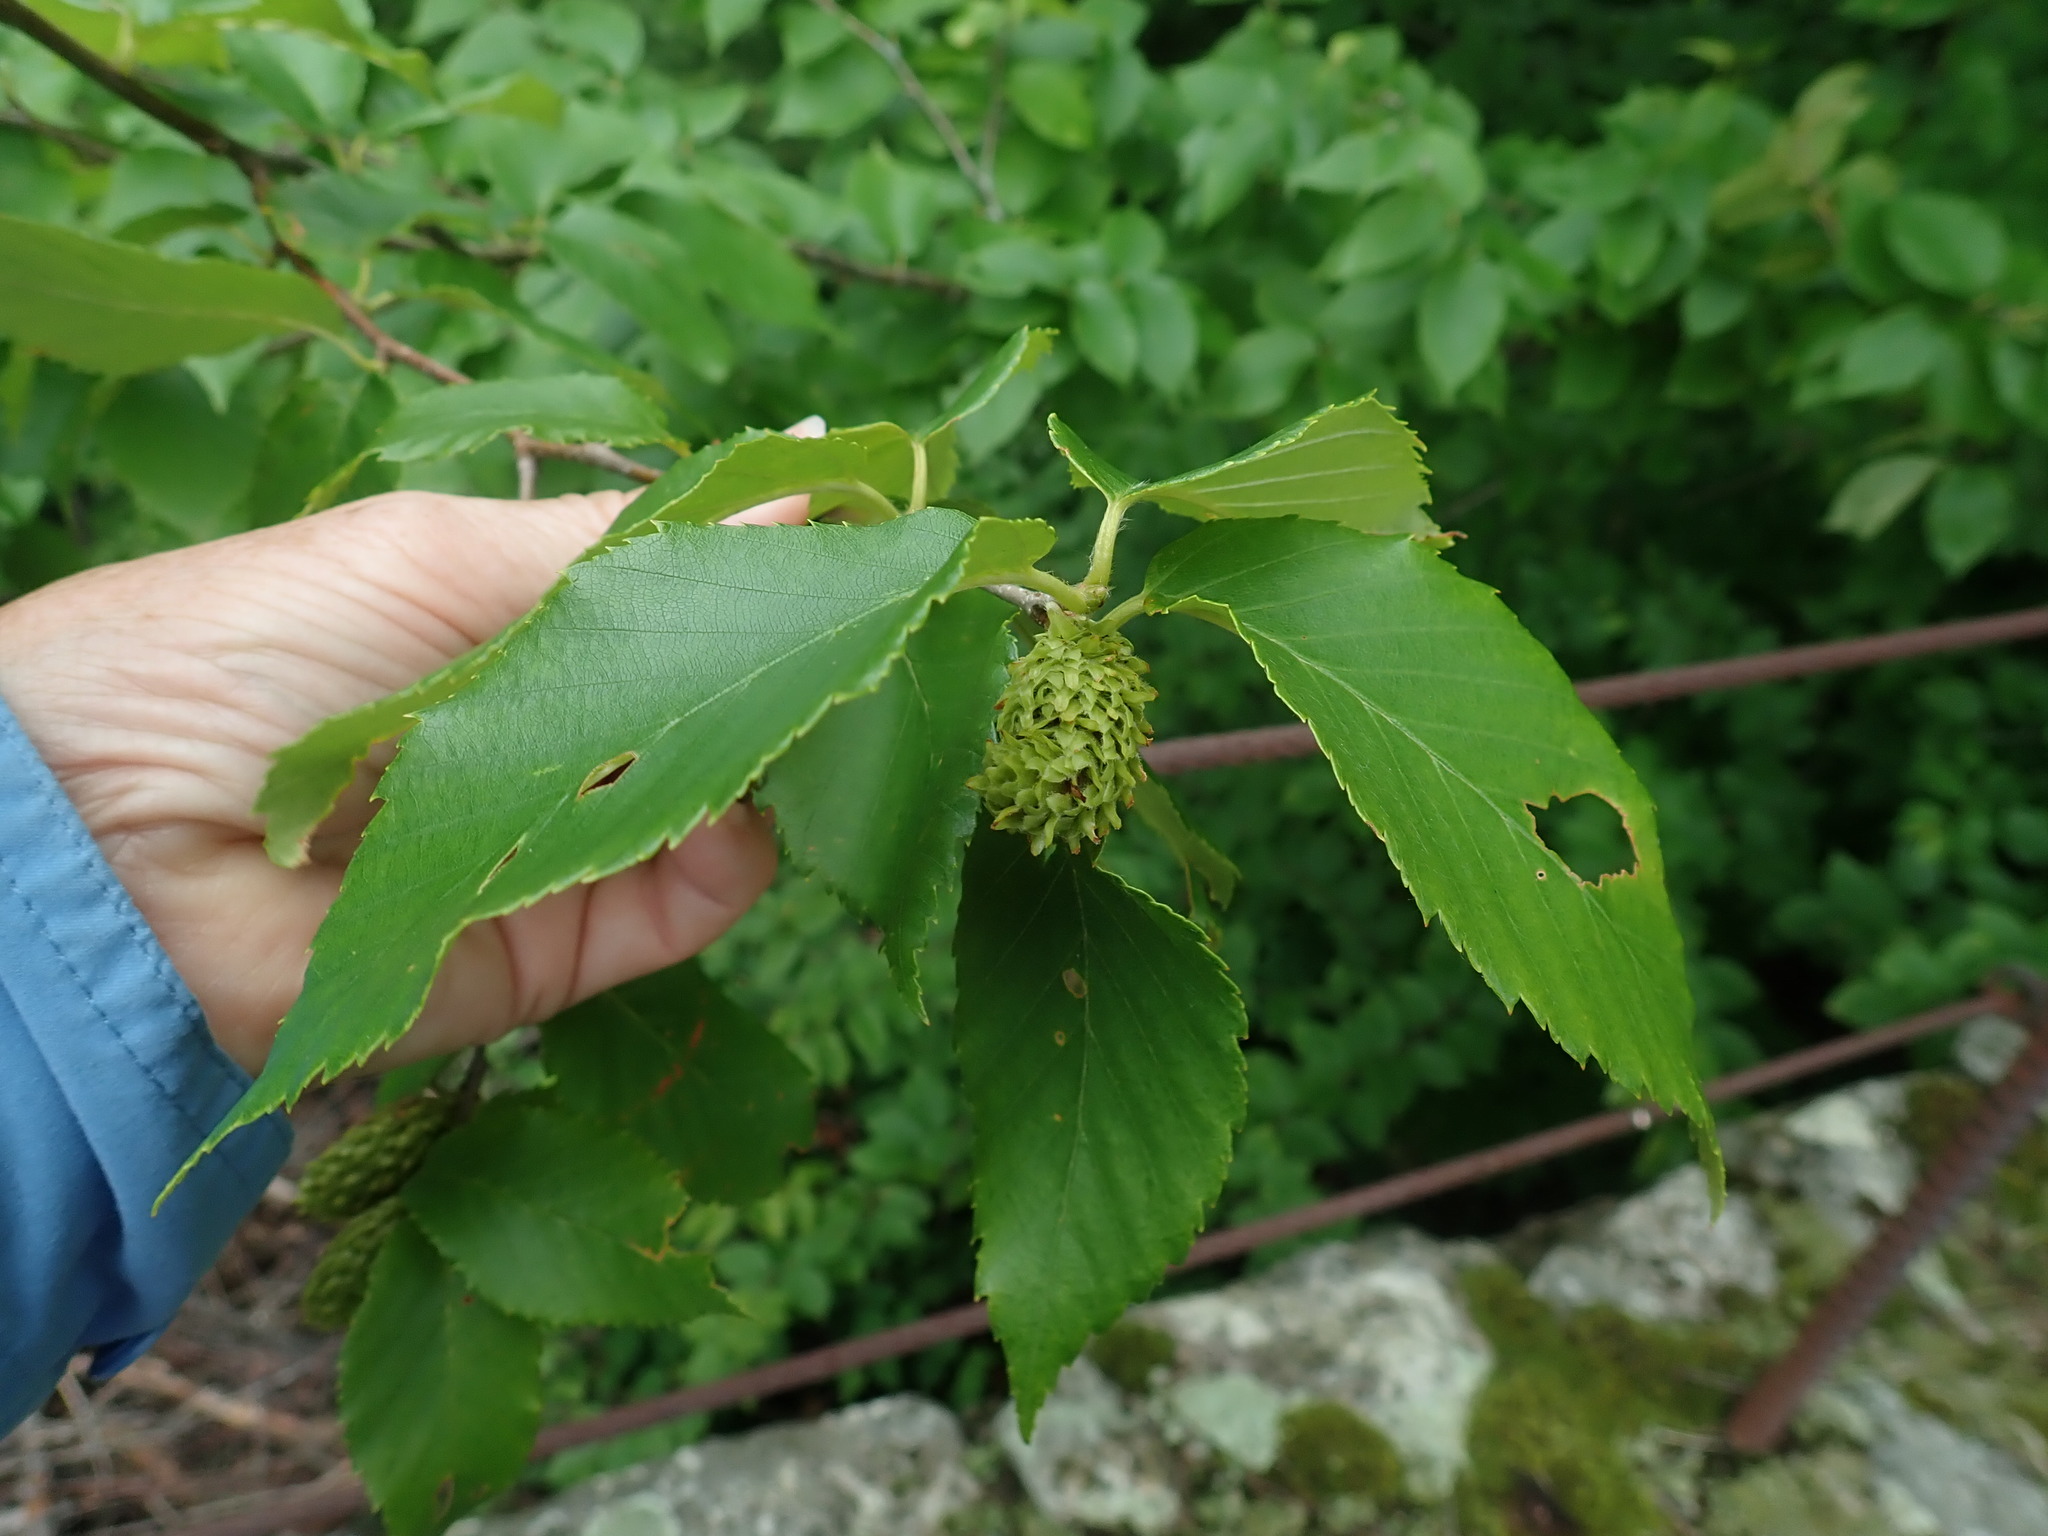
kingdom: Plantae
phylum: Tracheophyta
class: Magnoliopsida
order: Fagales
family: Betulaceae
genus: Betula
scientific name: Betula alleghaniensis
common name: Yellow birch
